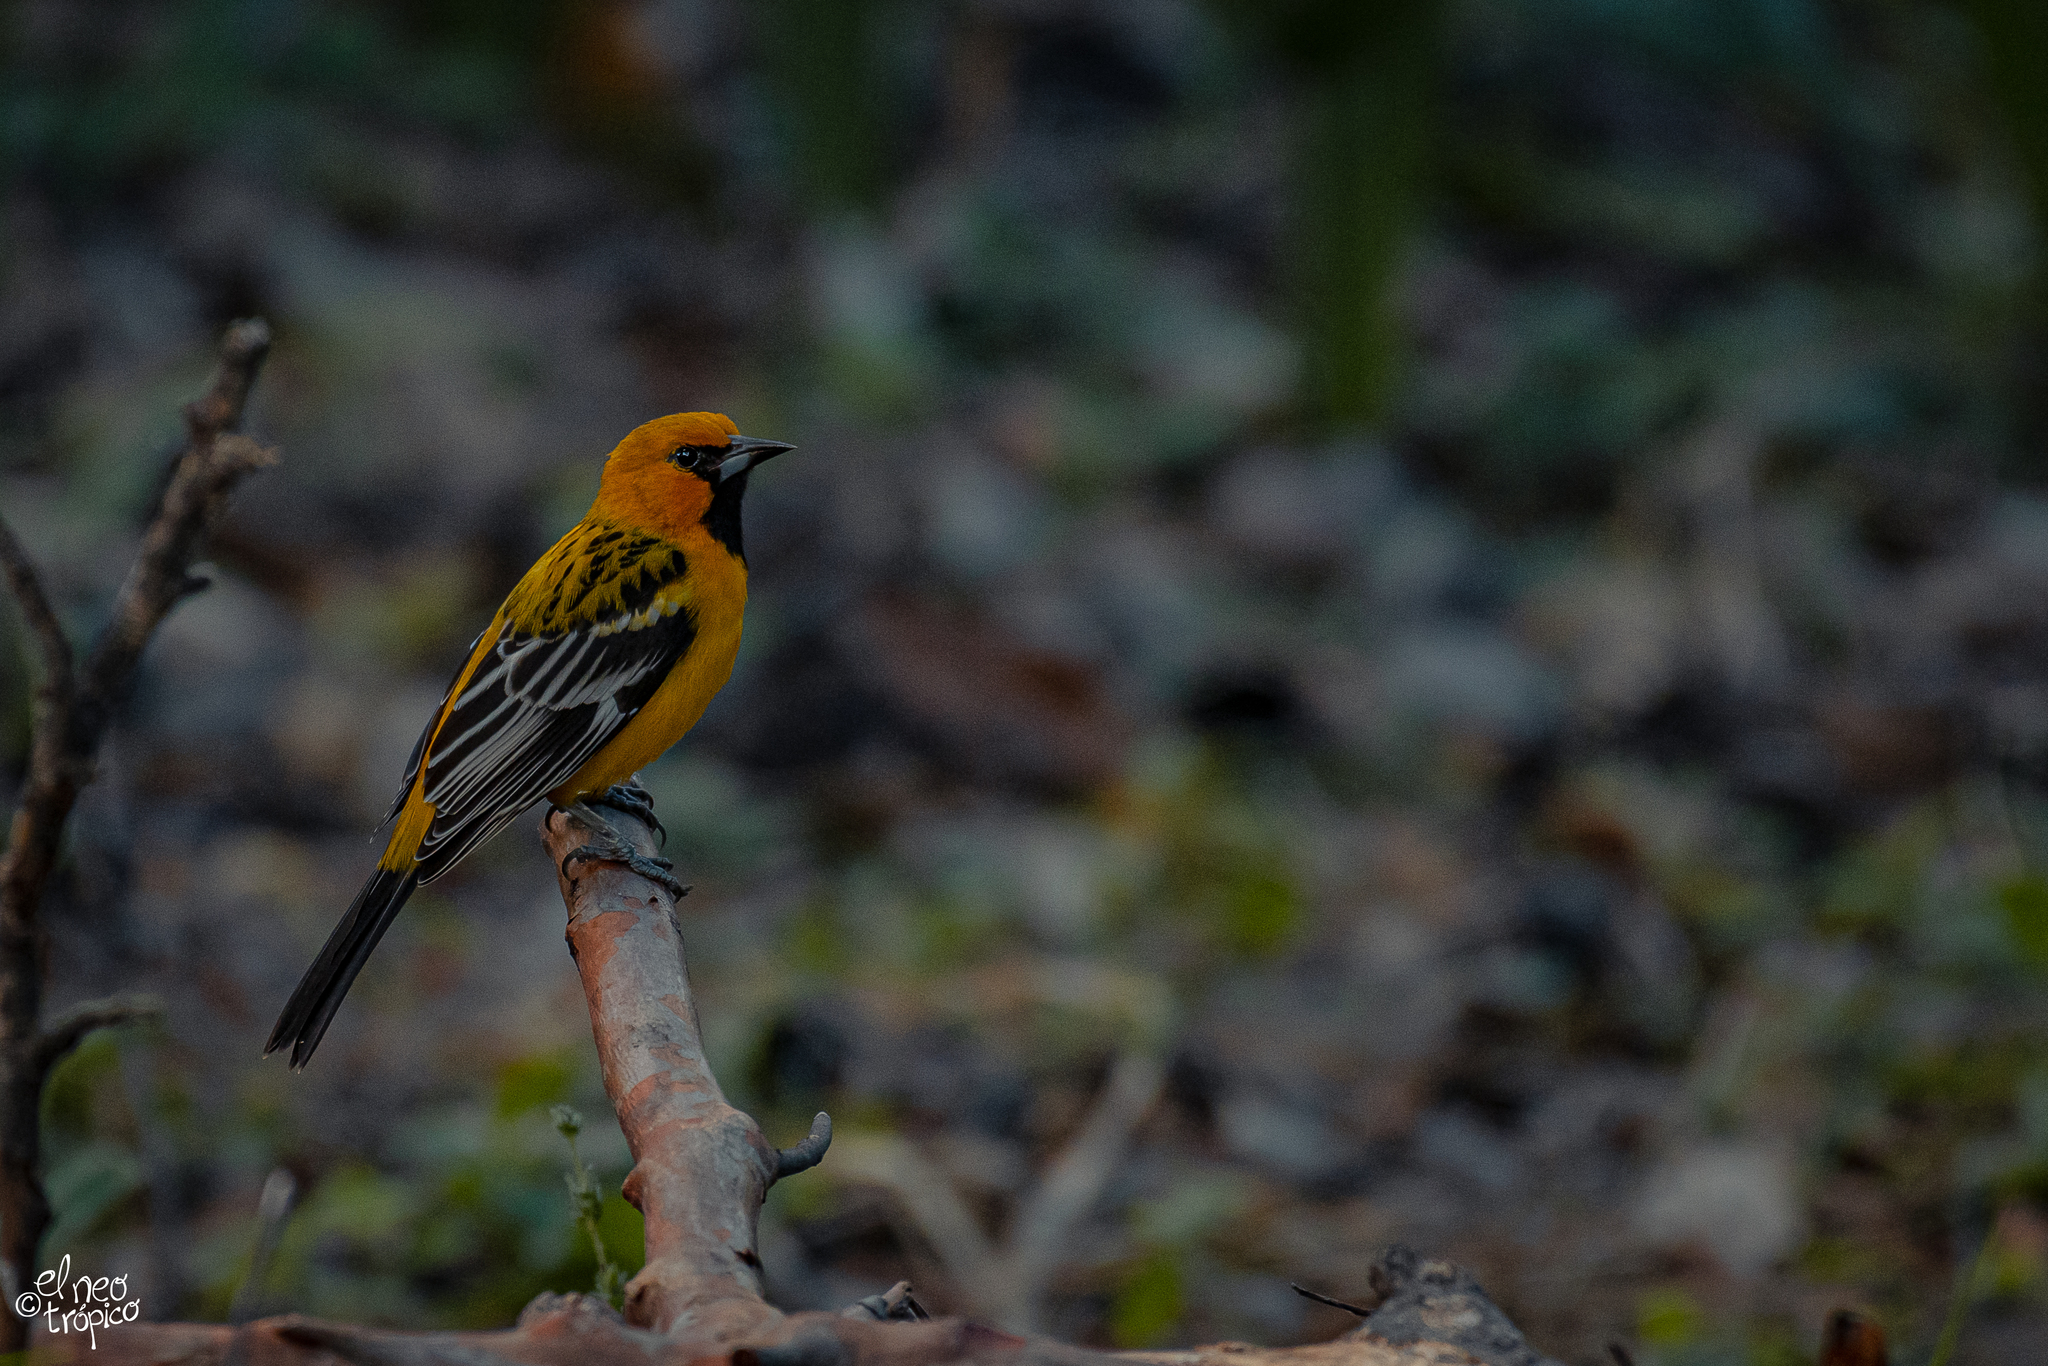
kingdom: Animalia
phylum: Chordata
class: Aves
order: Passeriformes
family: Icteridae
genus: Icterus
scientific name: Icterus pustulatus
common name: Streak-backed oriole
